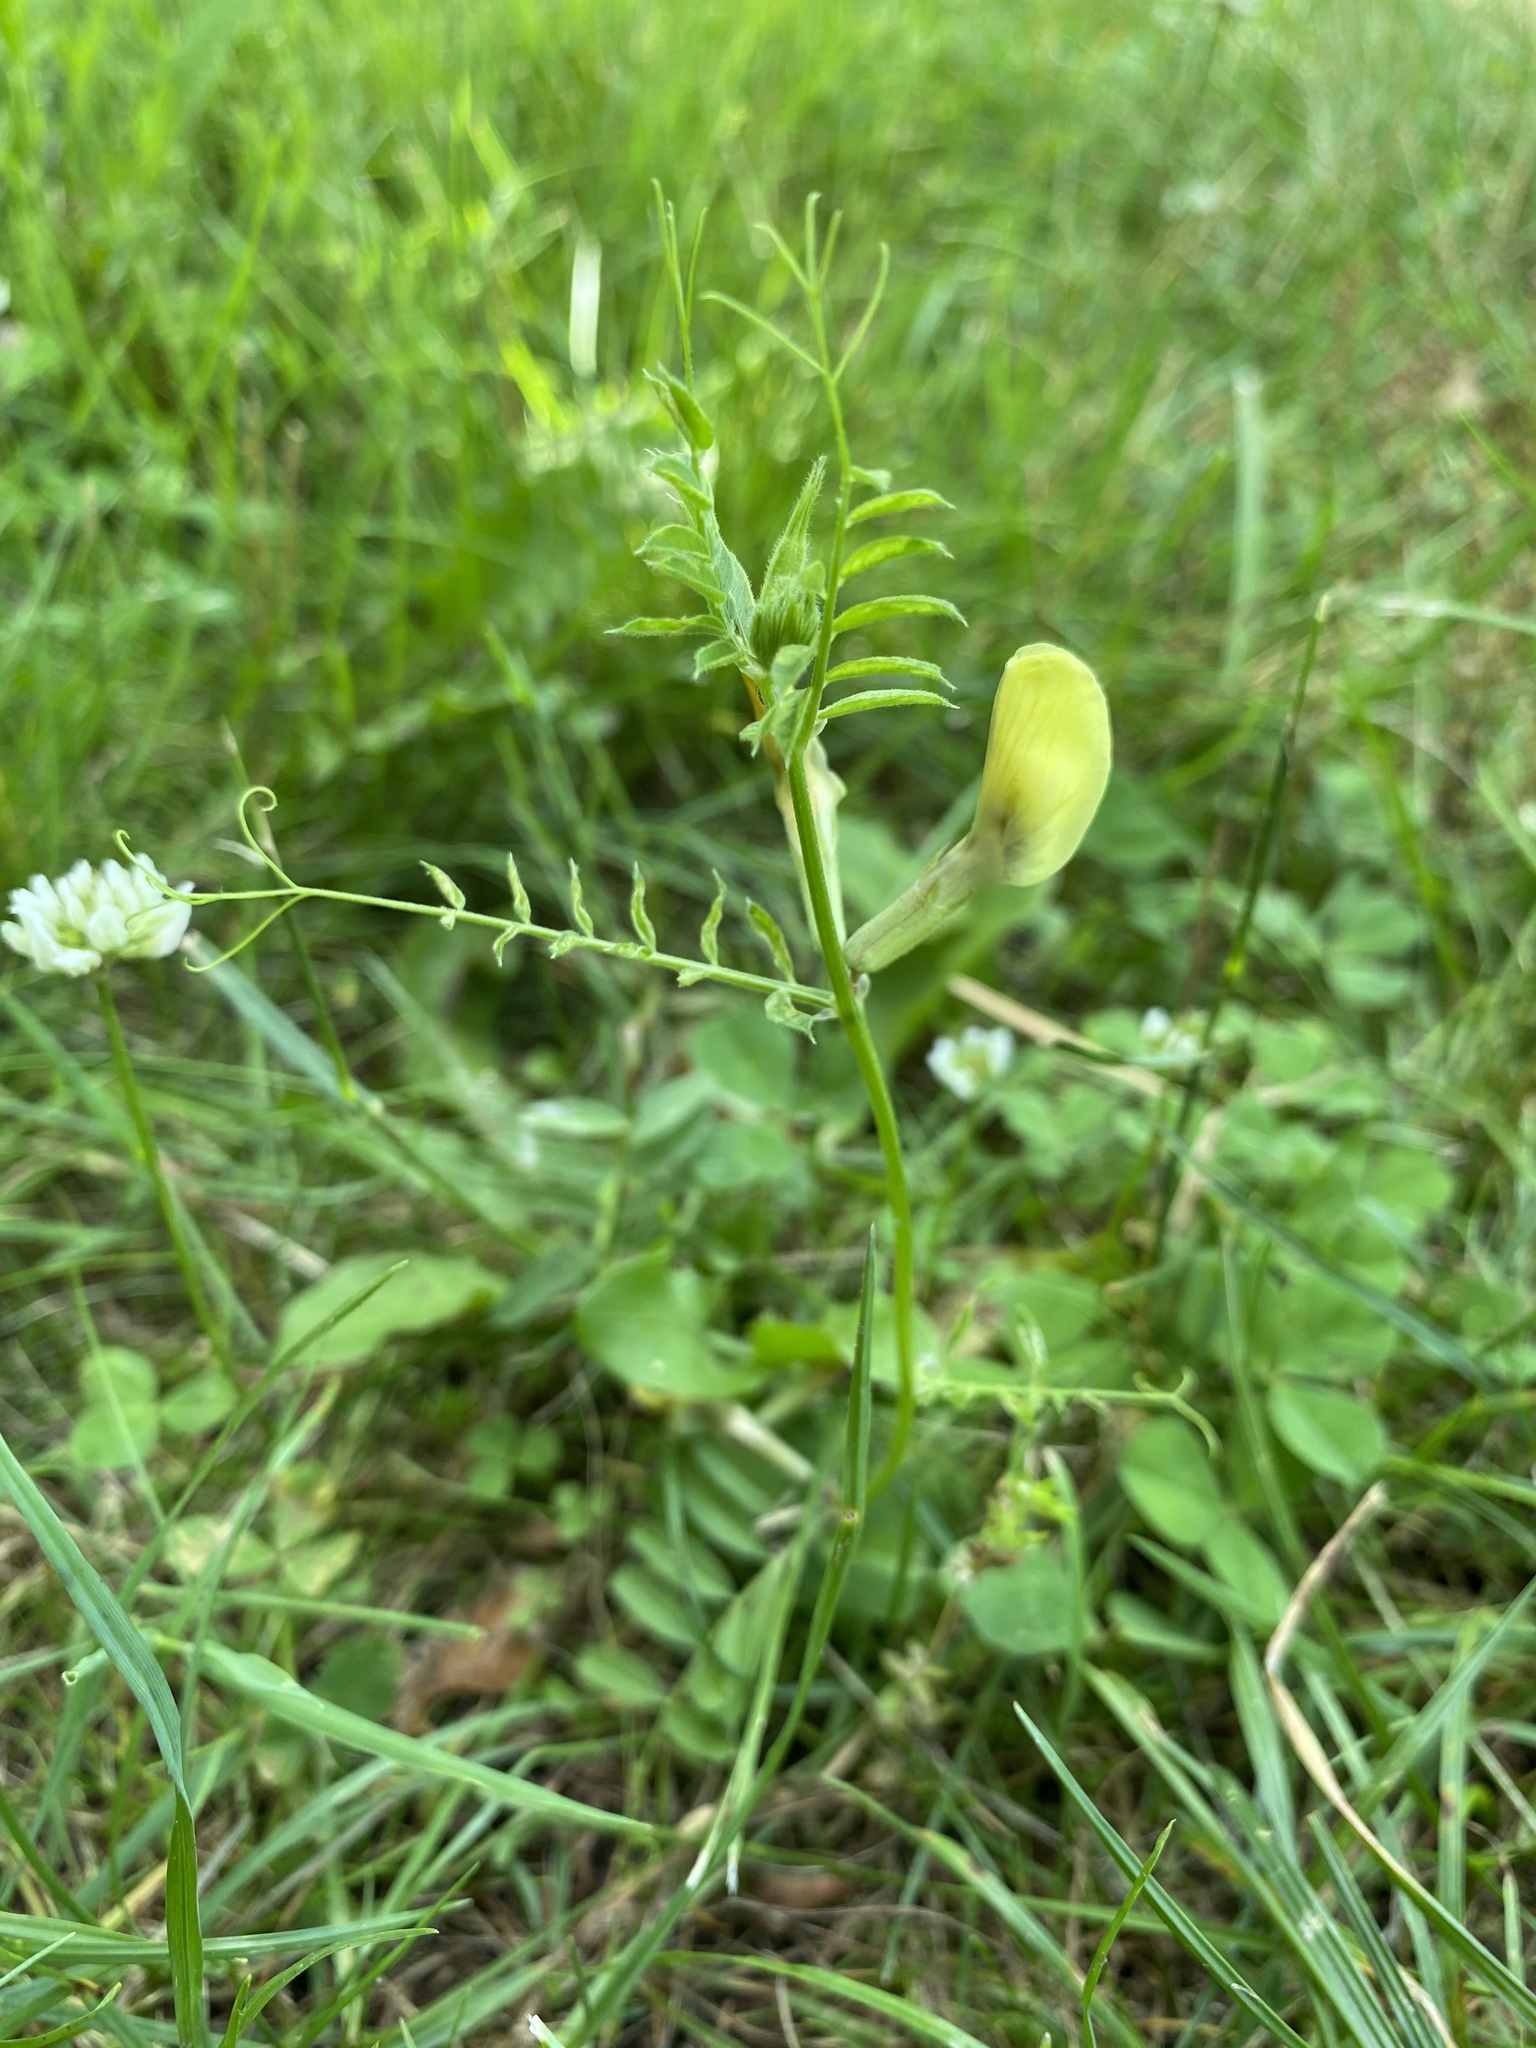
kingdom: Plantae
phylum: Tracheophyta
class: Magnoliopsida
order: Fabales
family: Fabaceae
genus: Vicia
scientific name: Vicia grandiflora
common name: Large yellow vetch
